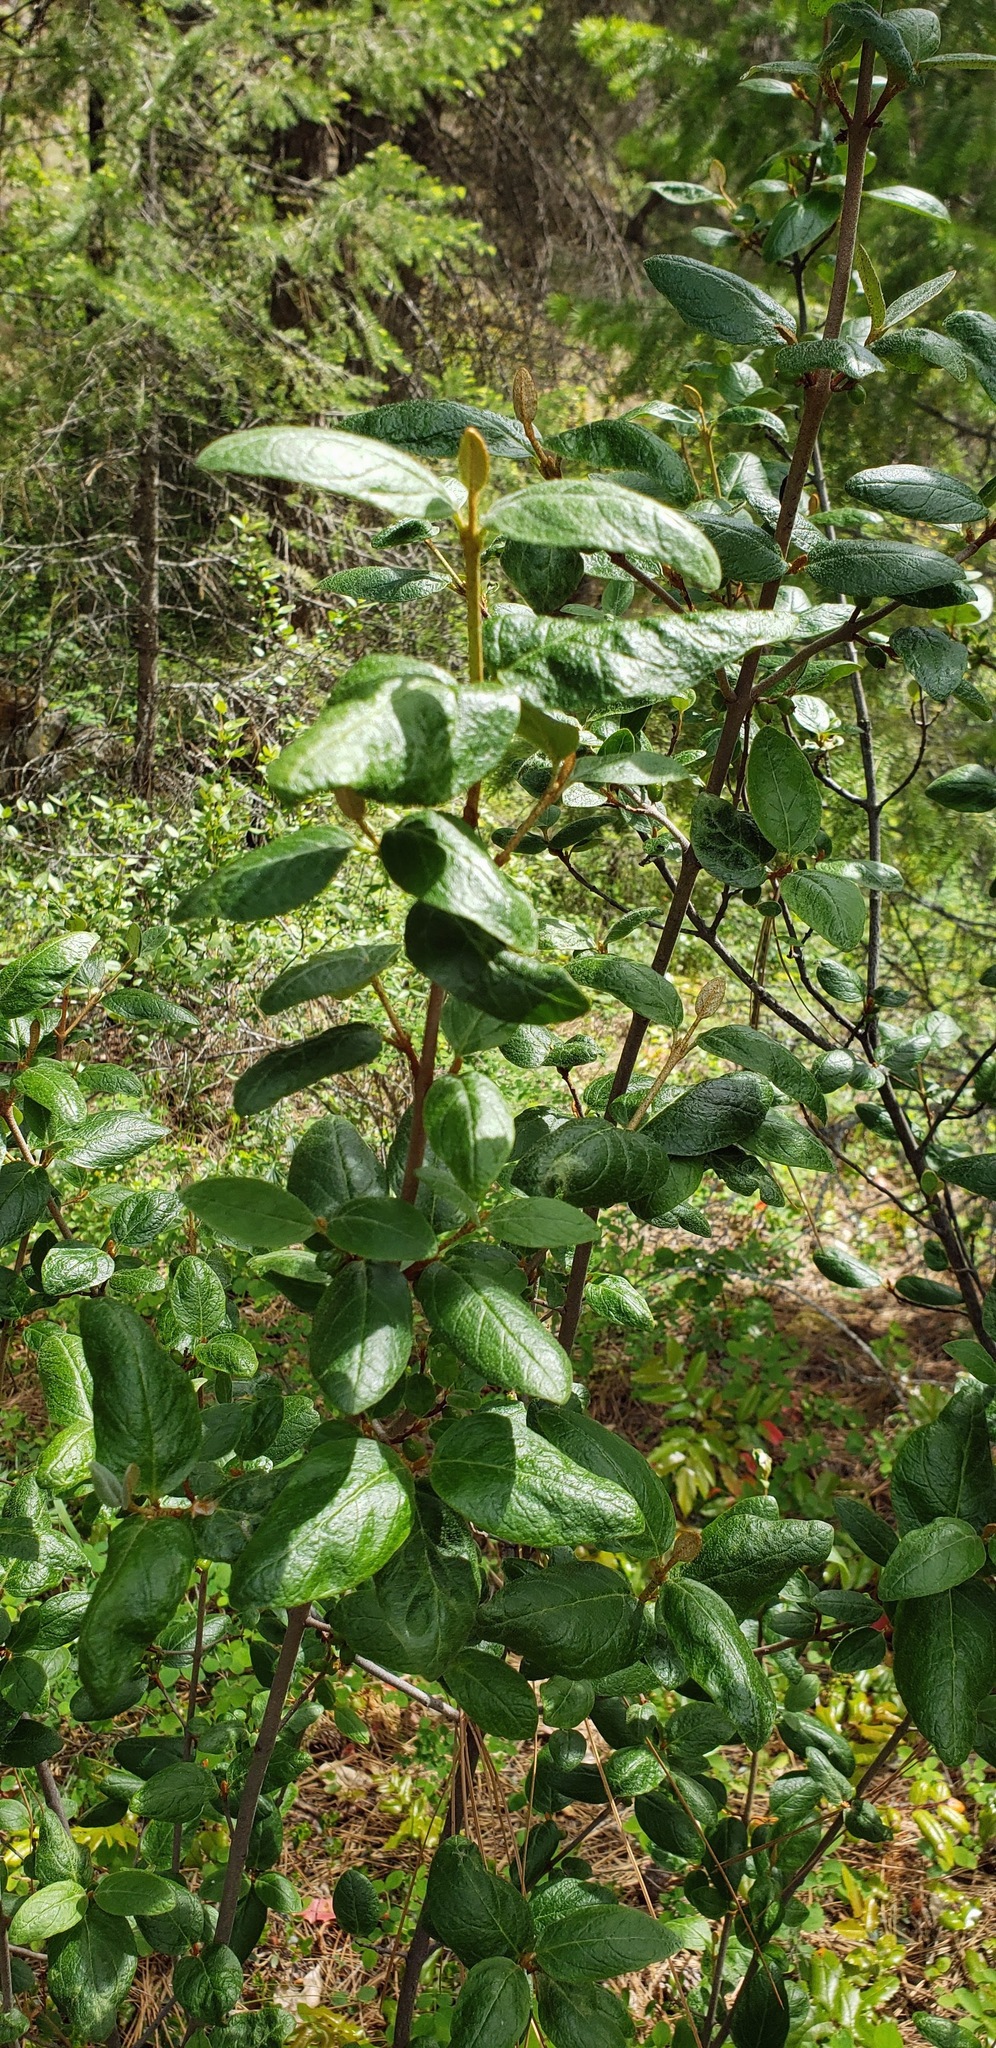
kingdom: Plantae
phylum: Tracheophyta
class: Magnoliopsida
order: Rosales
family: Elaeagnaceae
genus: Shepherdia
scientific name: Shepherdia canadensis
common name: Soapberry
